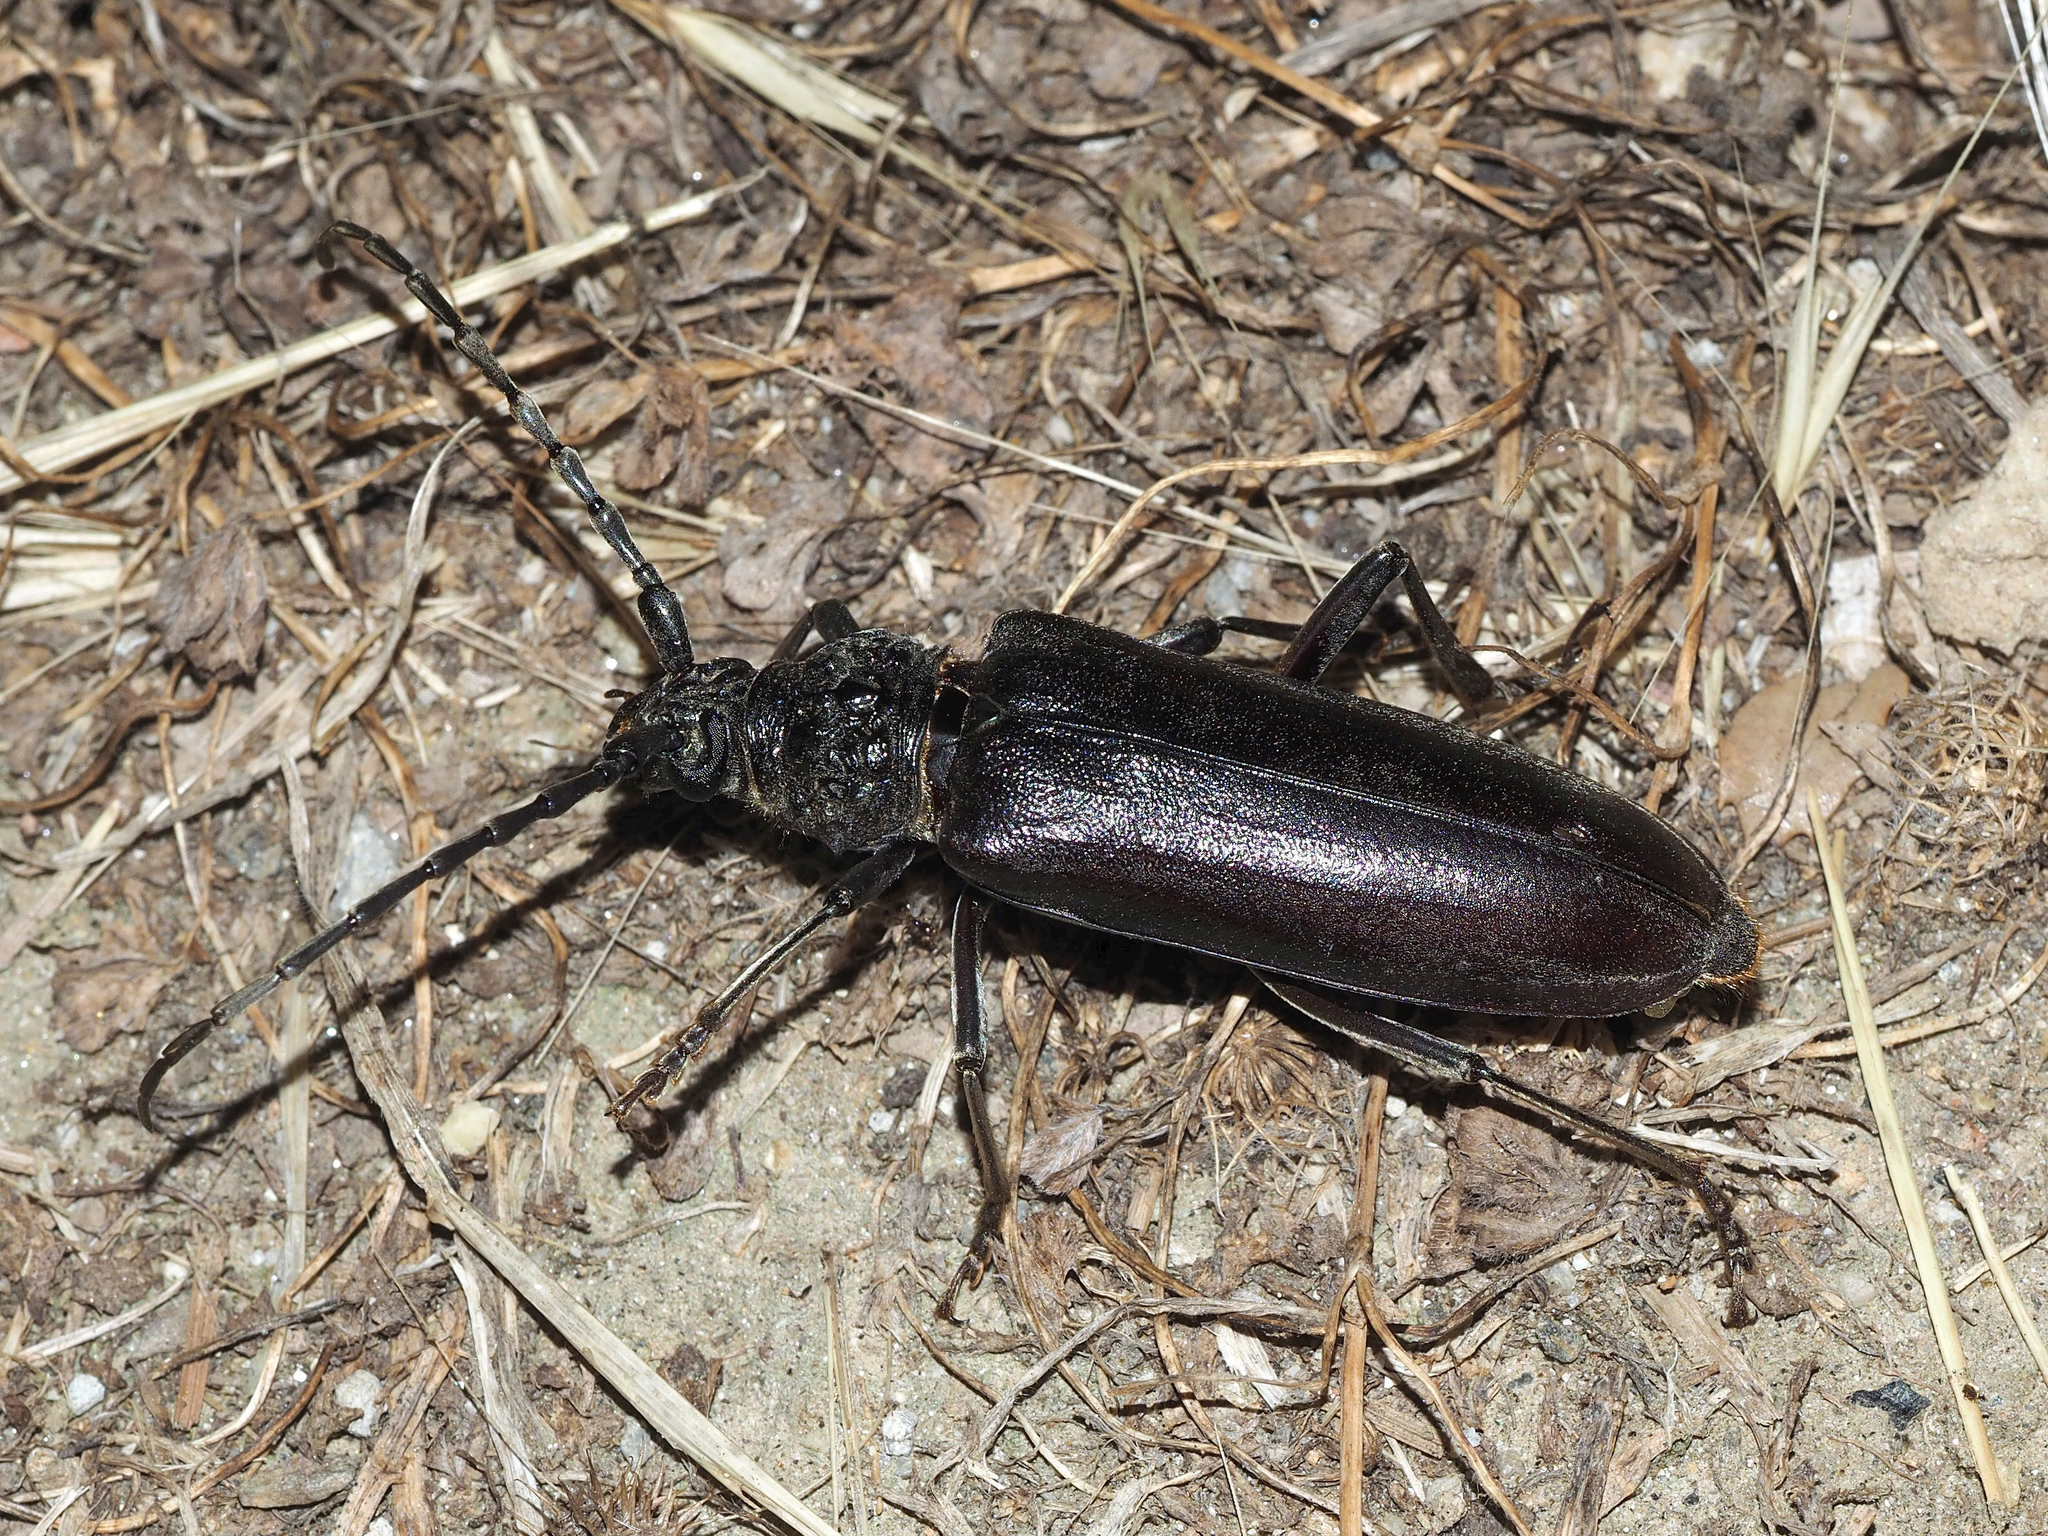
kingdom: Animalia
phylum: Arthropoda
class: Insecta
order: Coleoptera
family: Cerambycidae
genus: Cerambyx
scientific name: Cerambyx welensii
